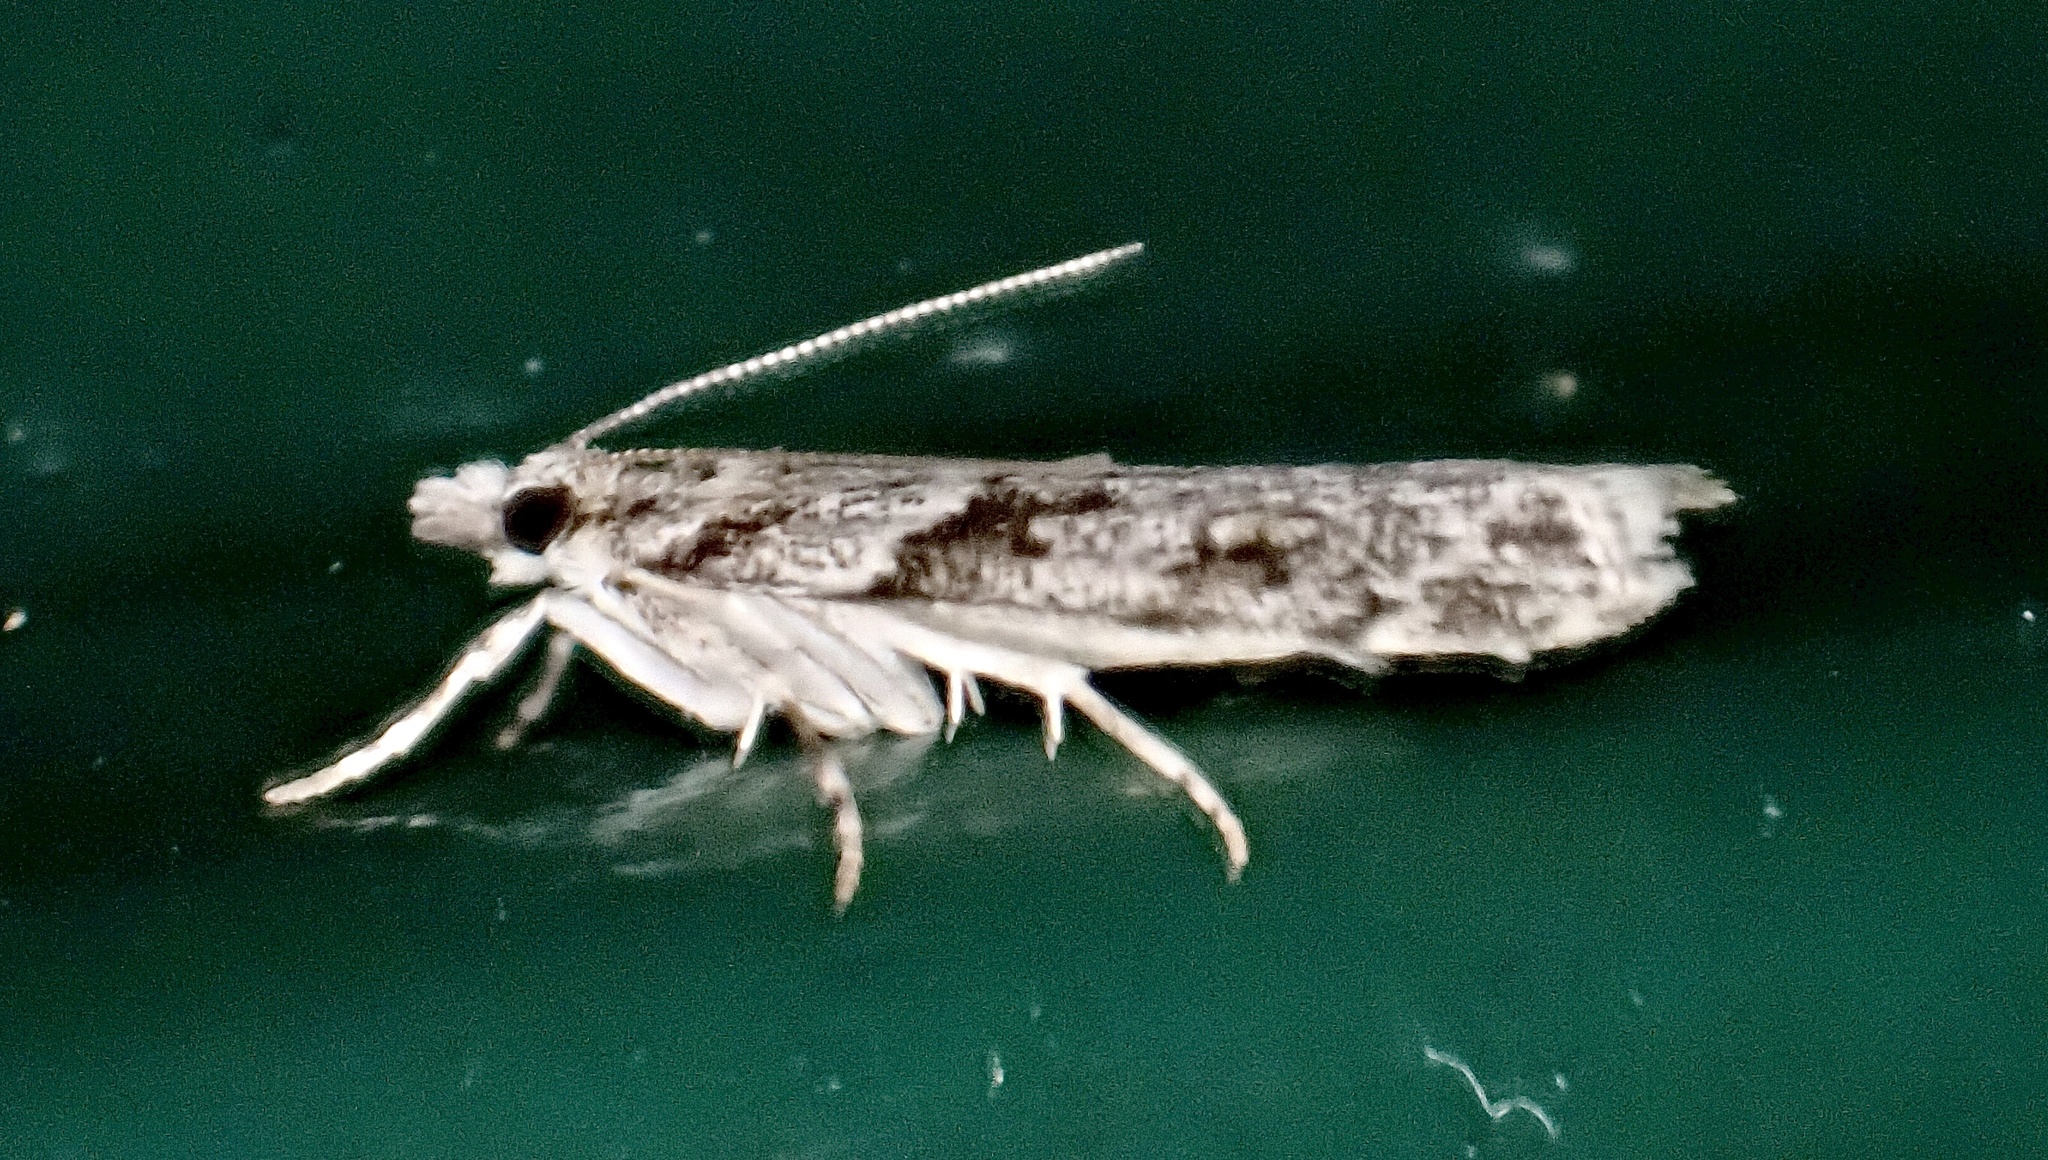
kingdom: Animalia
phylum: Arthropoda
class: Insecta
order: Lepidoptera
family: Crambidae
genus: Scoparia
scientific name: Scoparia biplagialis
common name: Double-striped scoparia moth
